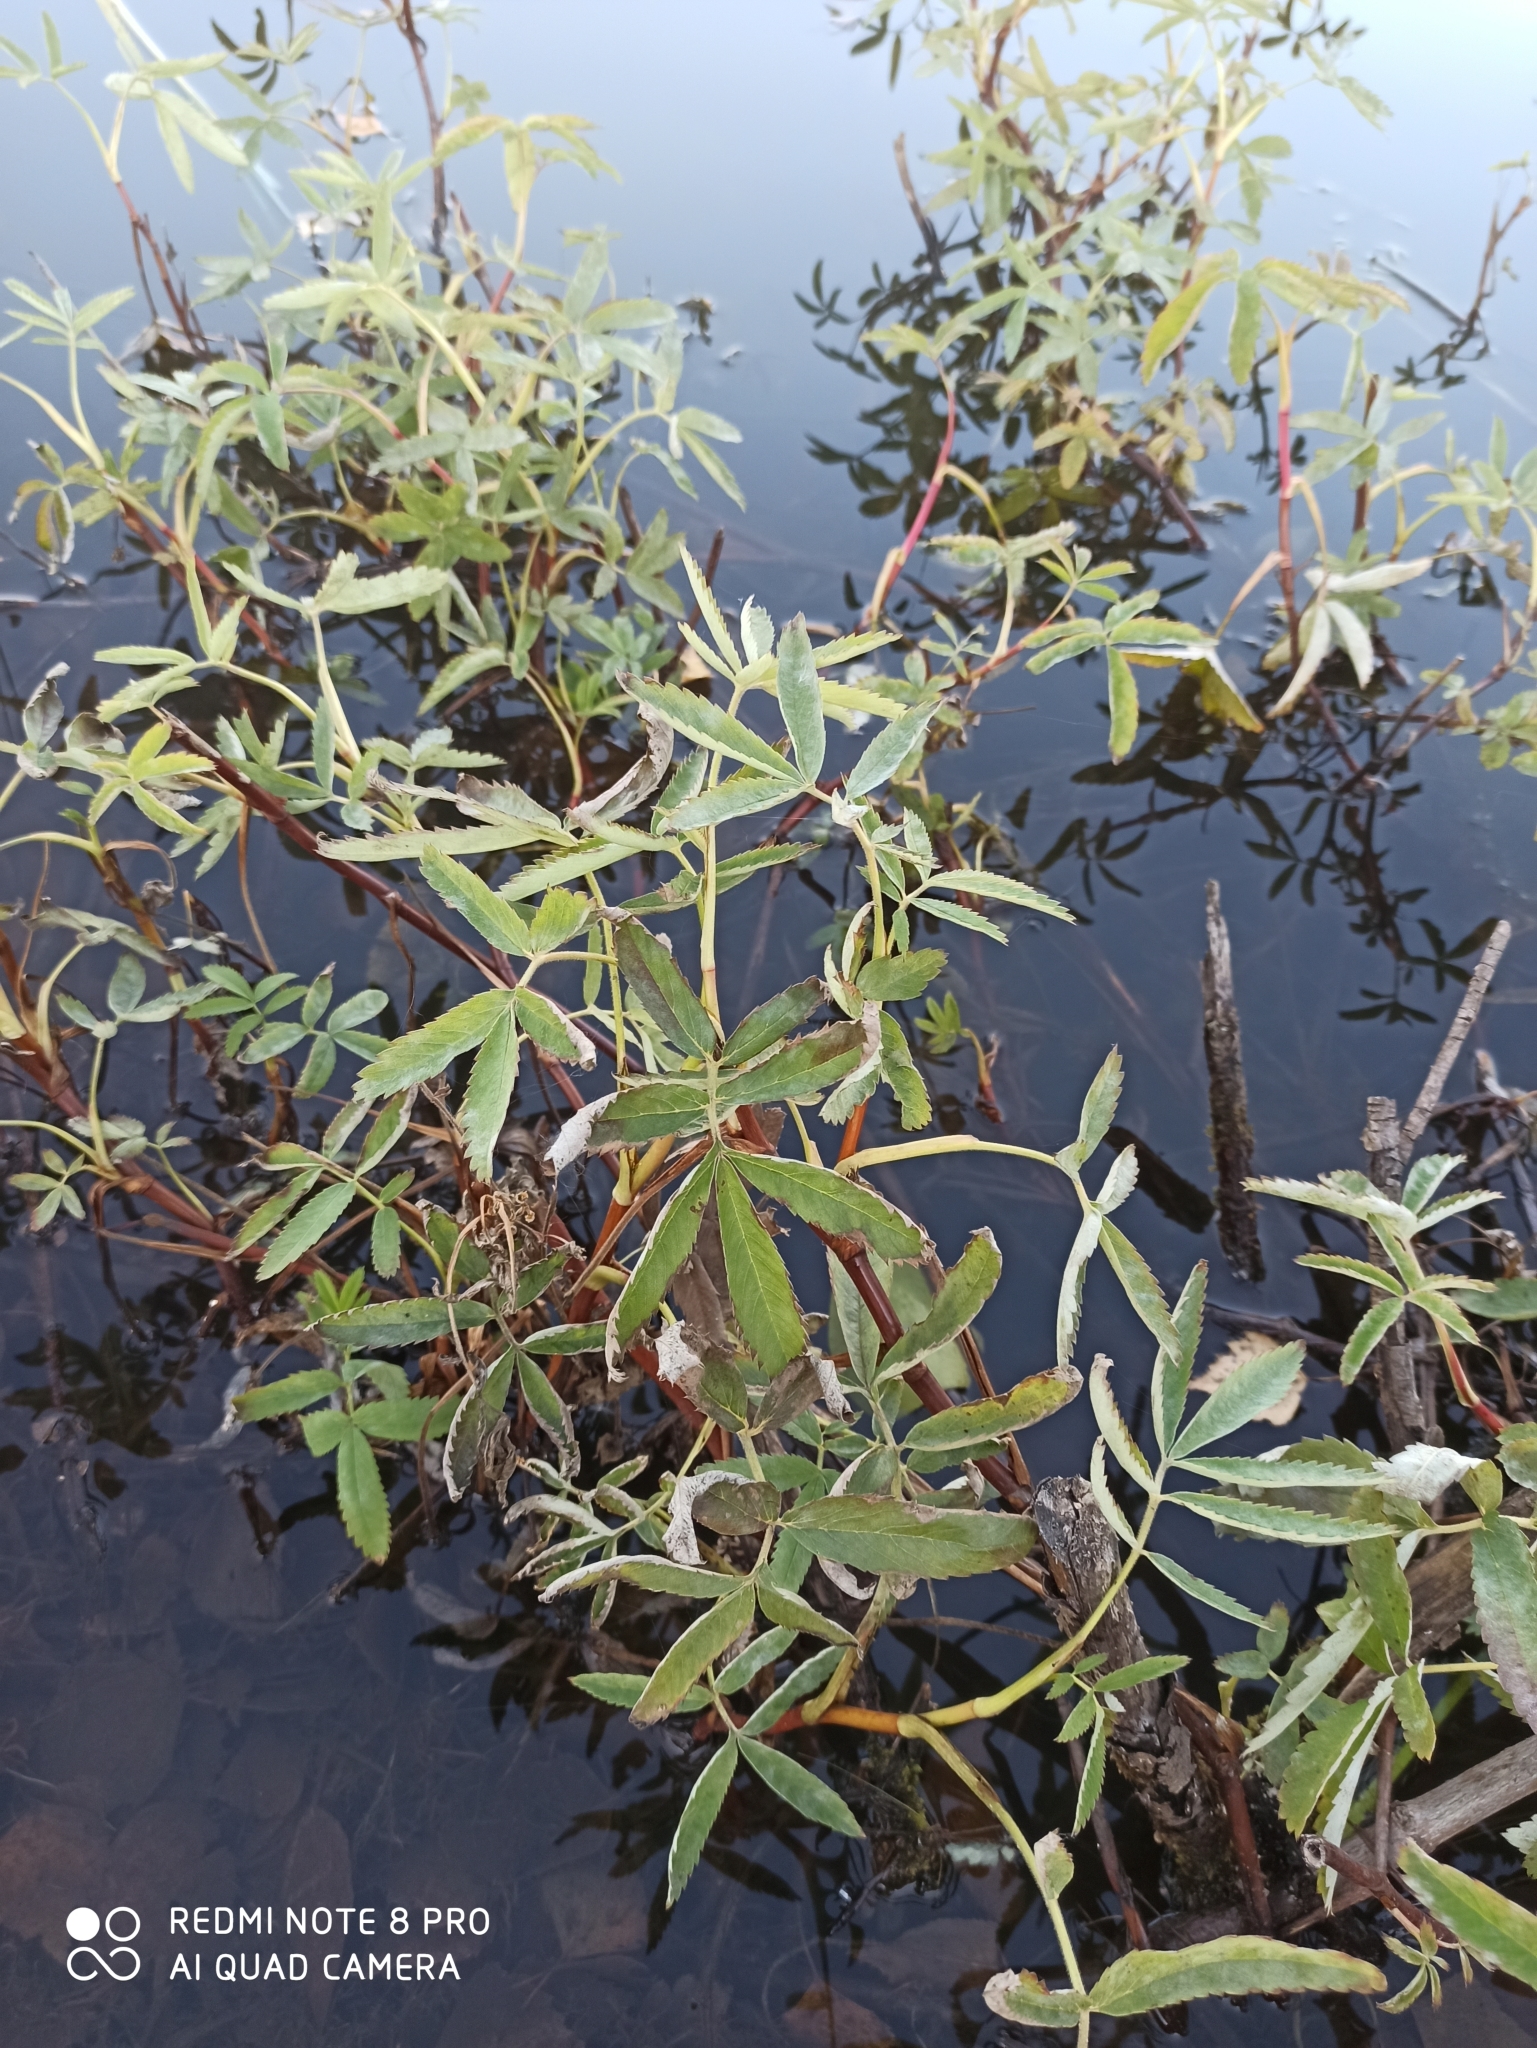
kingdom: Plantae
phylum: Tracheophyta
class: Magnoliopsida
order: Rosales
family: Rosaceae
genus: Comarum
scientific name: Comarum palustre
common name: Marsh cinquefoil
